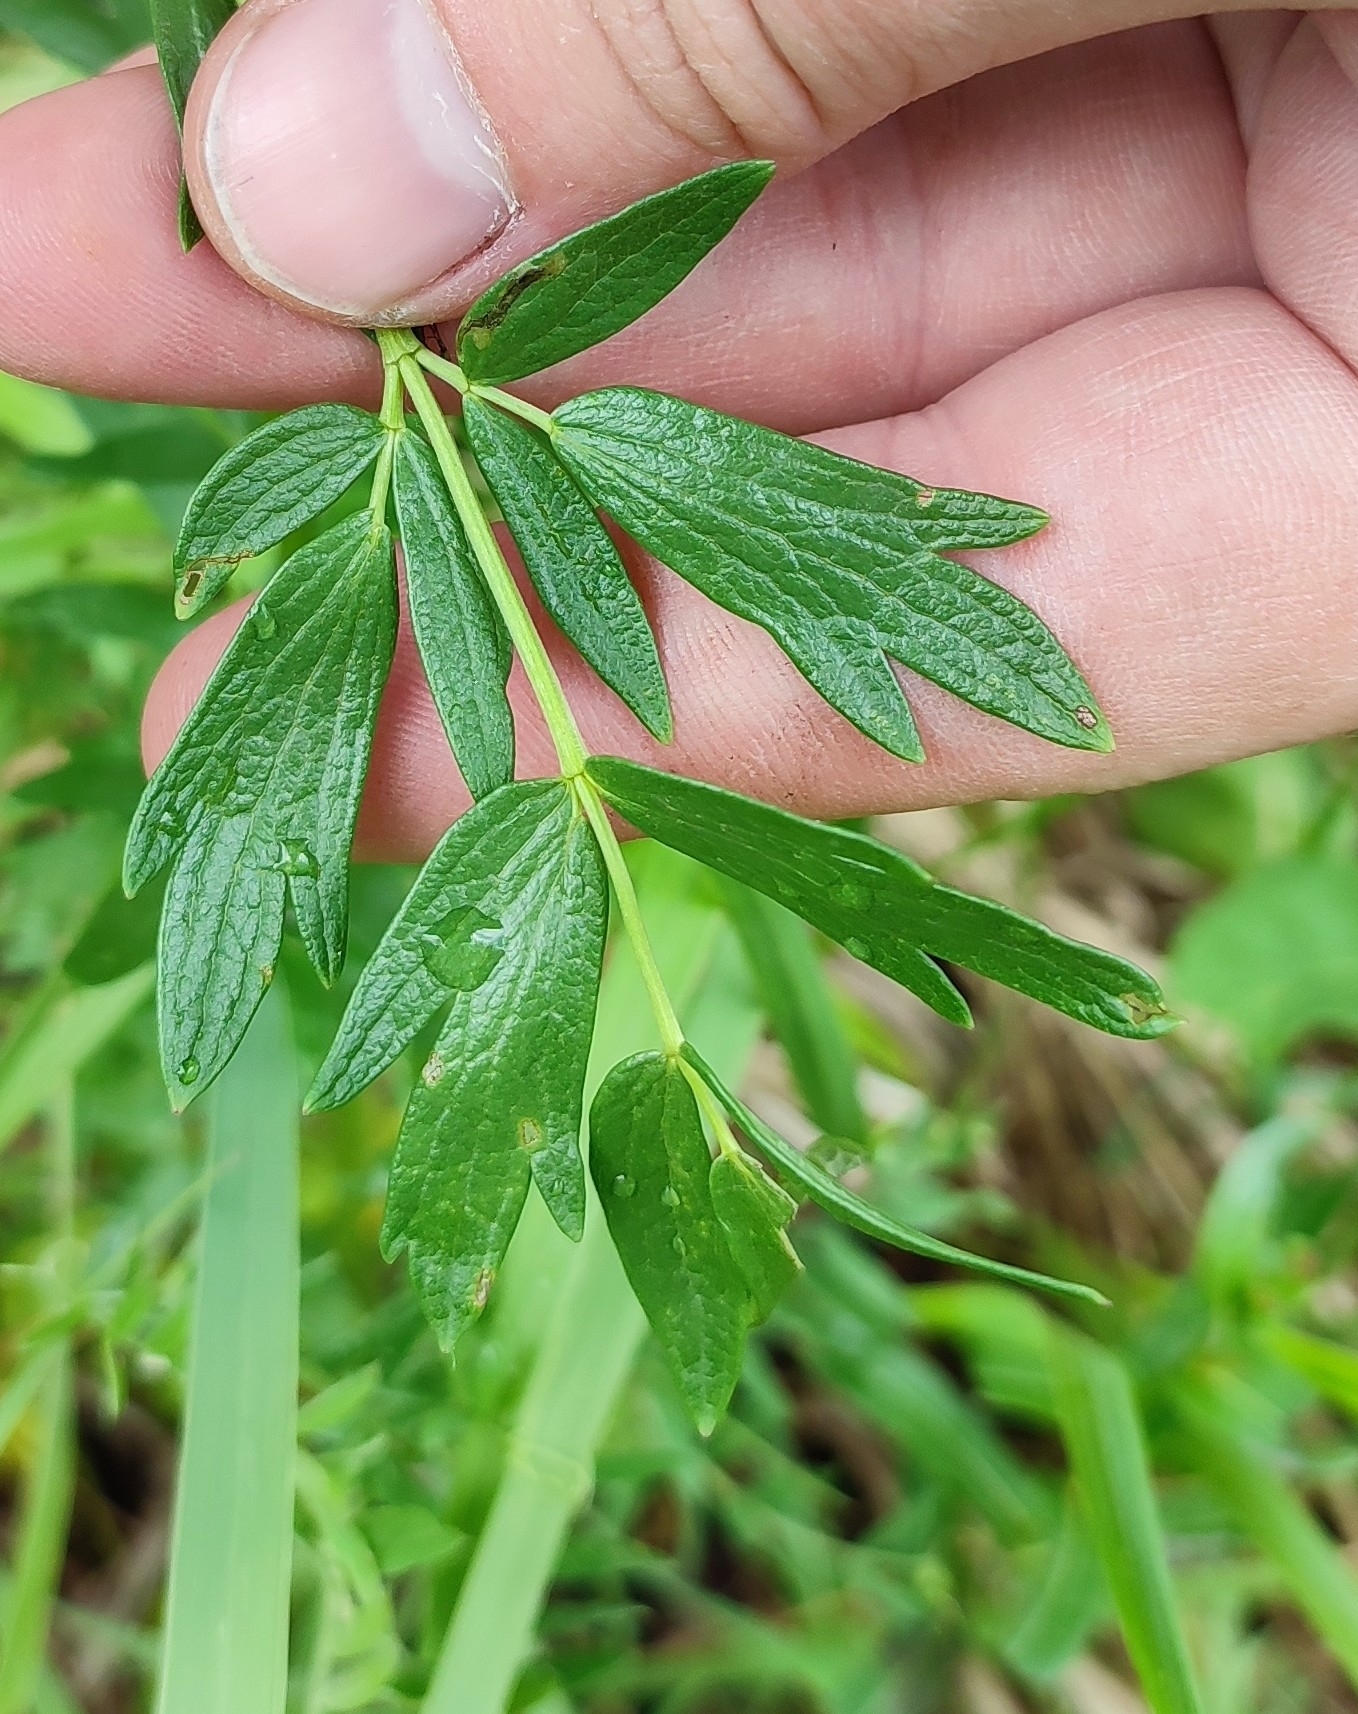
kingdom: Plantae
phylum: Tracheophyta
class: Magnoliopsida
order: Ranunculales
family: Ranunculaceae
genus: Thalictrum
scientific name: Thalictrum flavum
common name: Common meadow-rue
